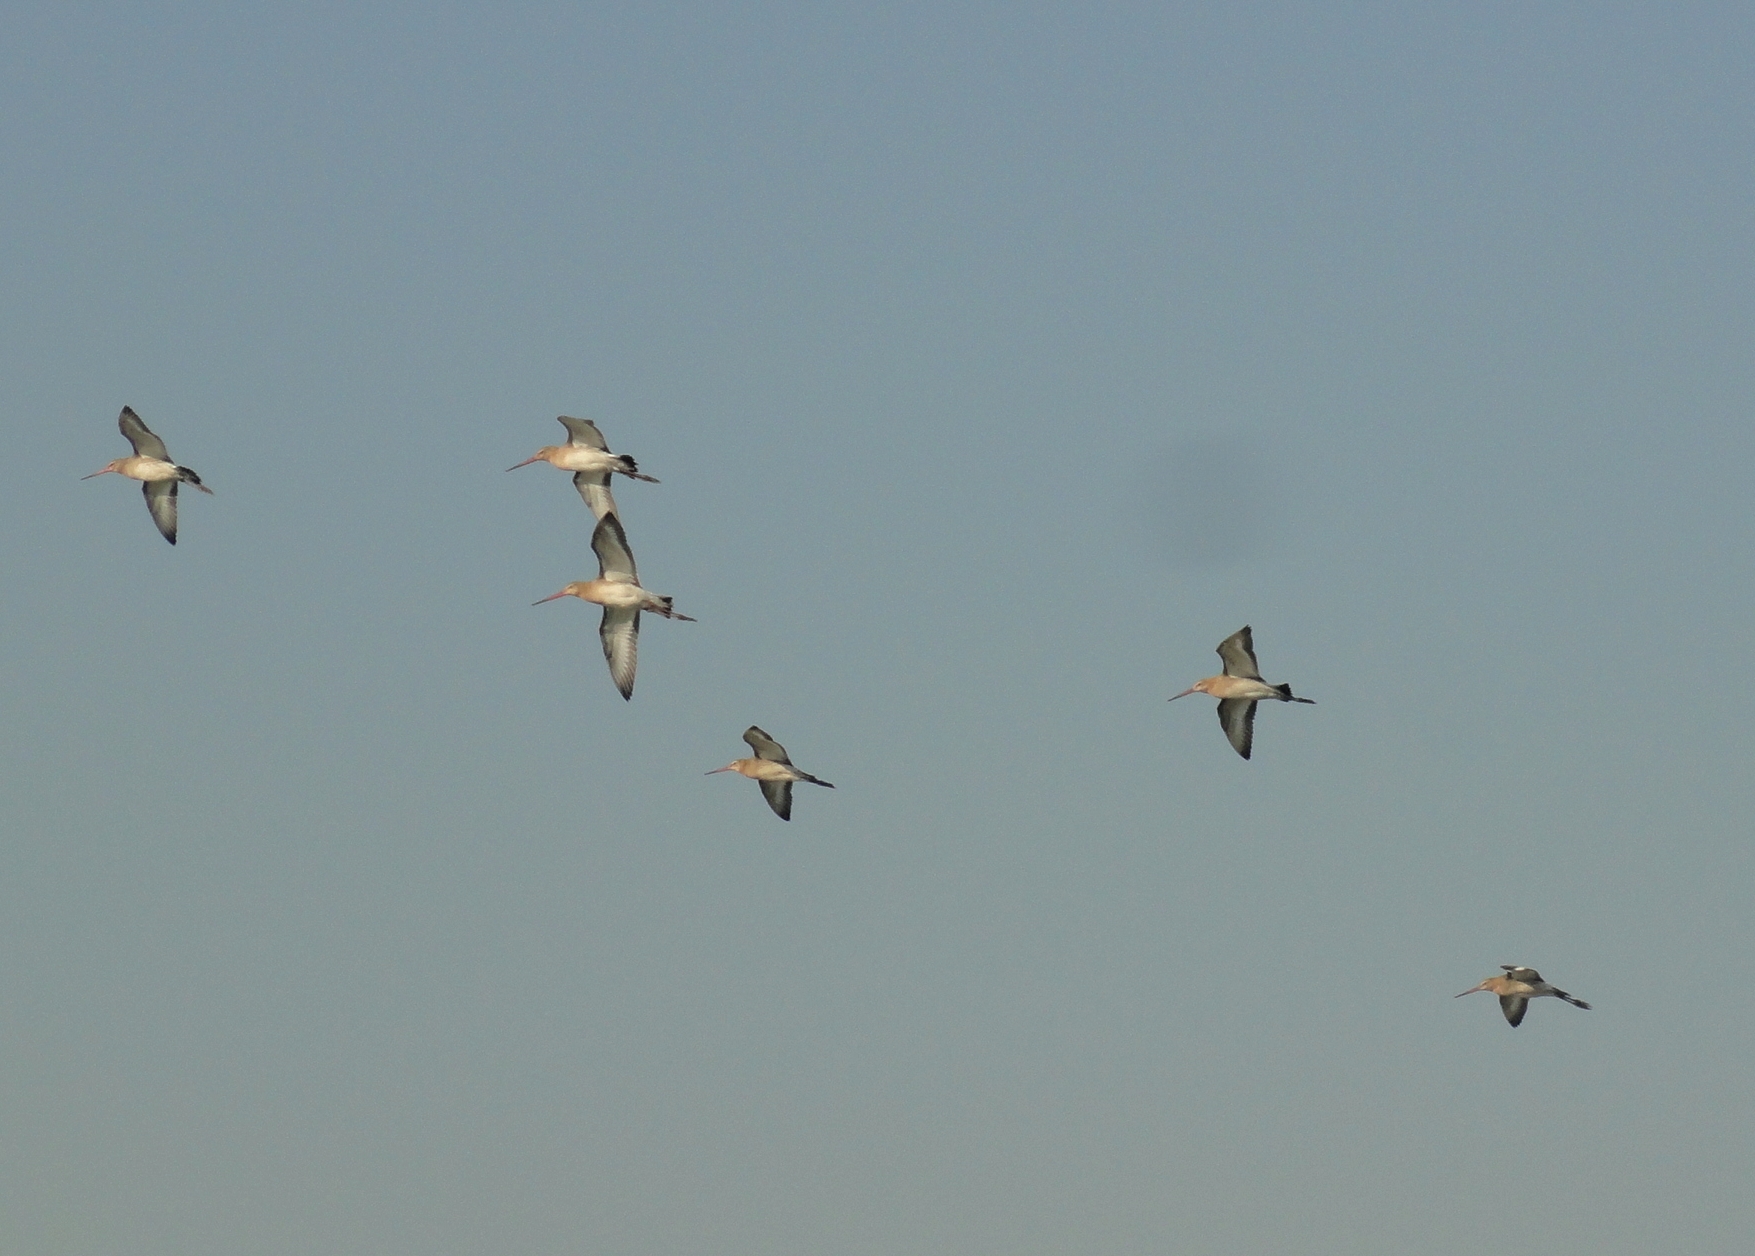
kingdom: Animalia
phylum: Chordata
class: Aves
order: Charadriiformes
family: Scolopacidae
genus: Limosa
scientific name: Limosa limosa
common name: Black-tailed godwit
